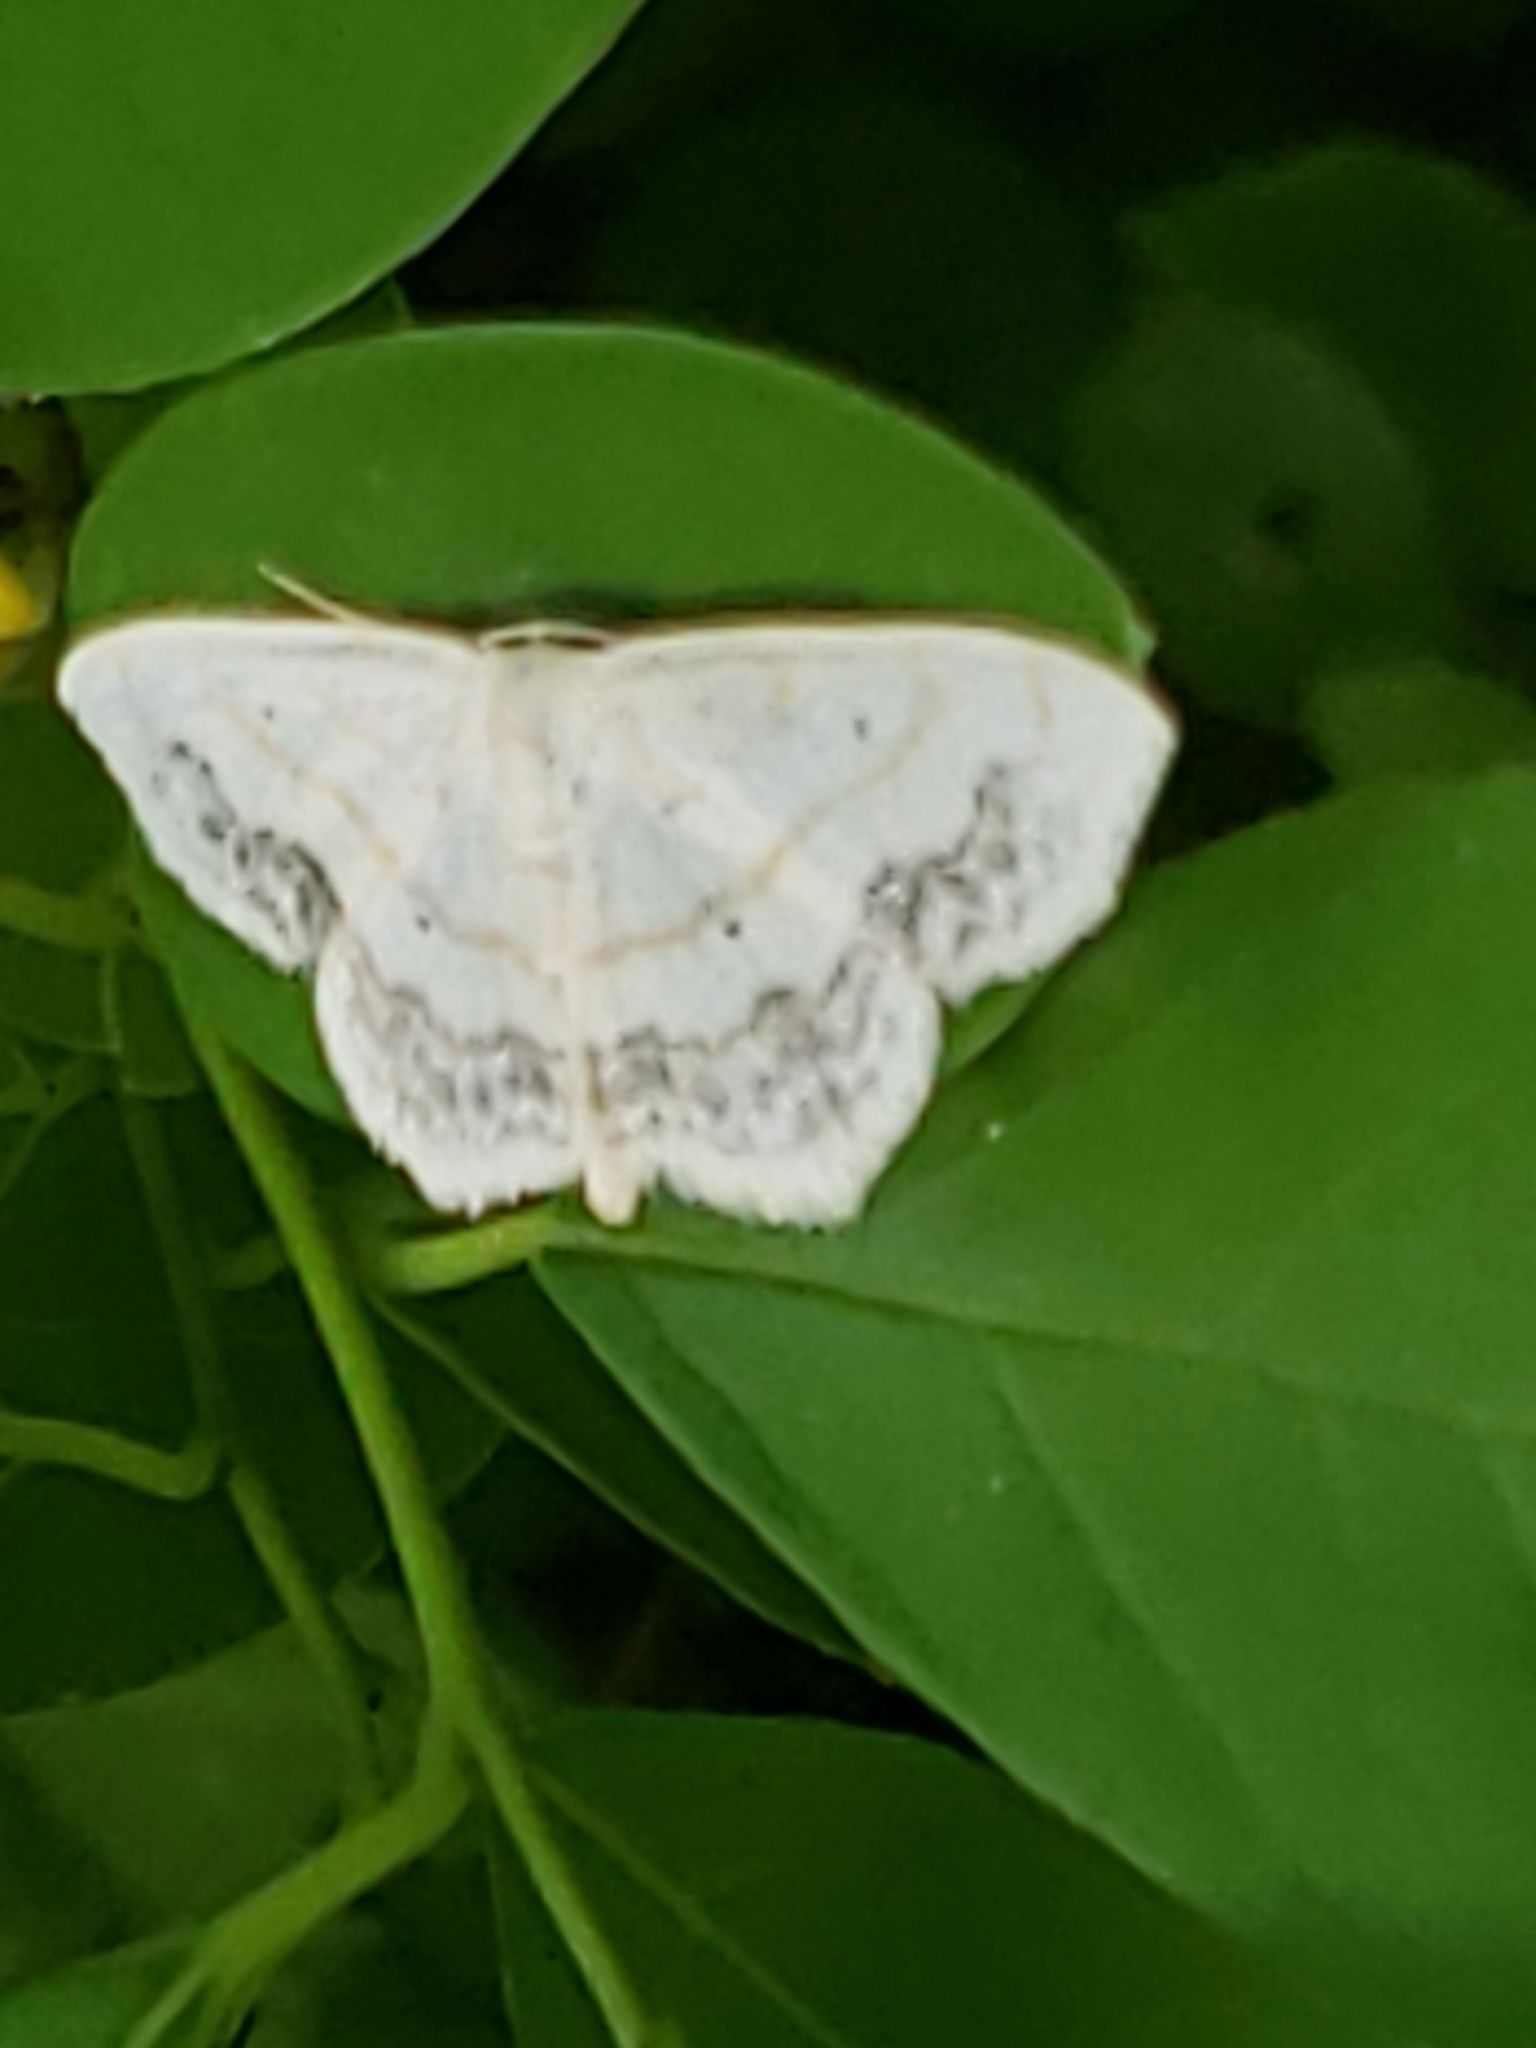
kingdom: Animalia
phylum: Arthropoda
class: Insecta
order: Lepidoptera
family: Geometridae
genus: Scopula
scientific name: Scopula limboundata
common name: Large lace border
